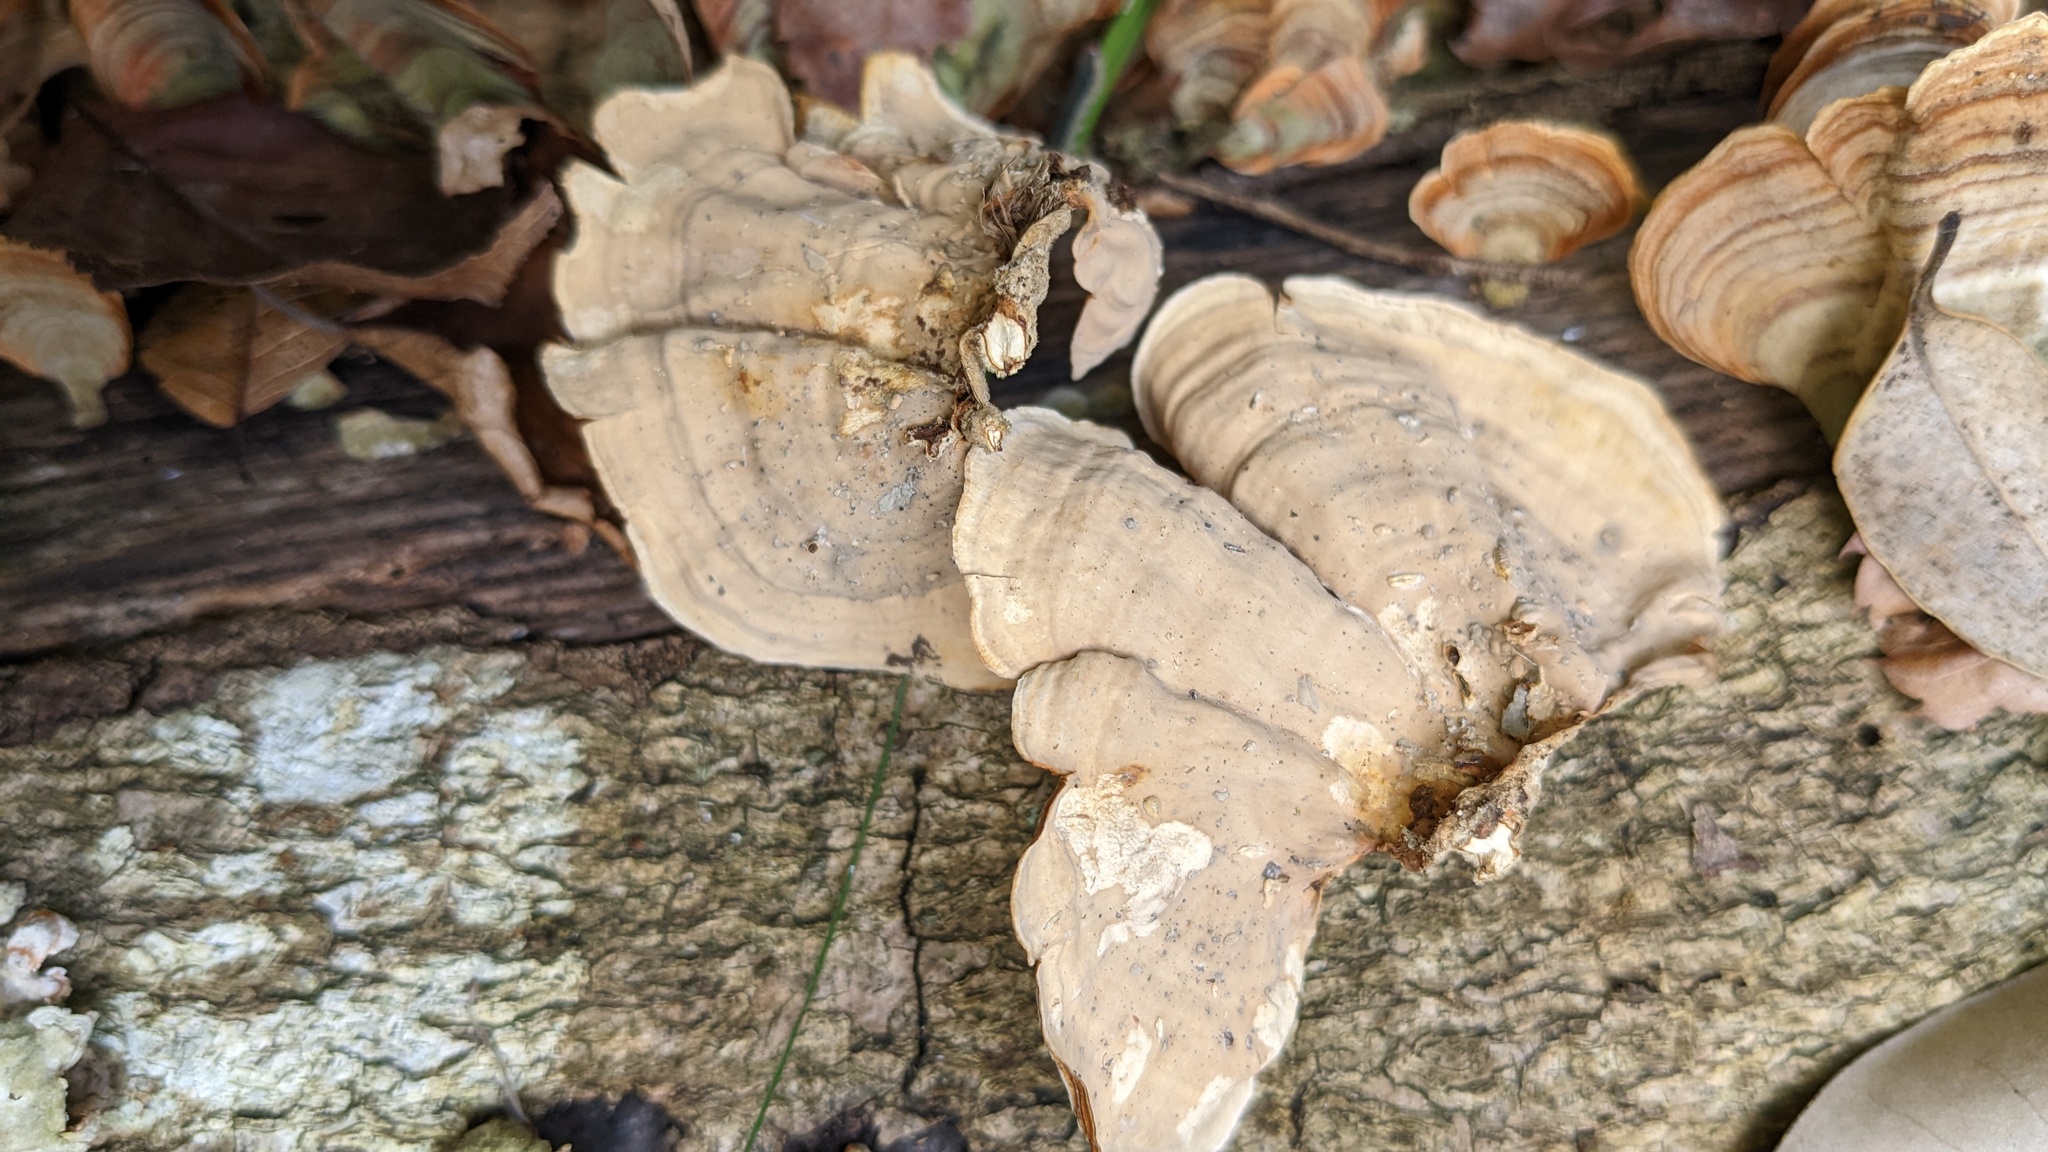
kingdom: Fungi
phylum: Basidiomycota
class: Agaricomycetes
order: Russulales
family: Stereaceae
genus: Stereum
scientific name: Stereum ostrea
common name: False turkeytail
